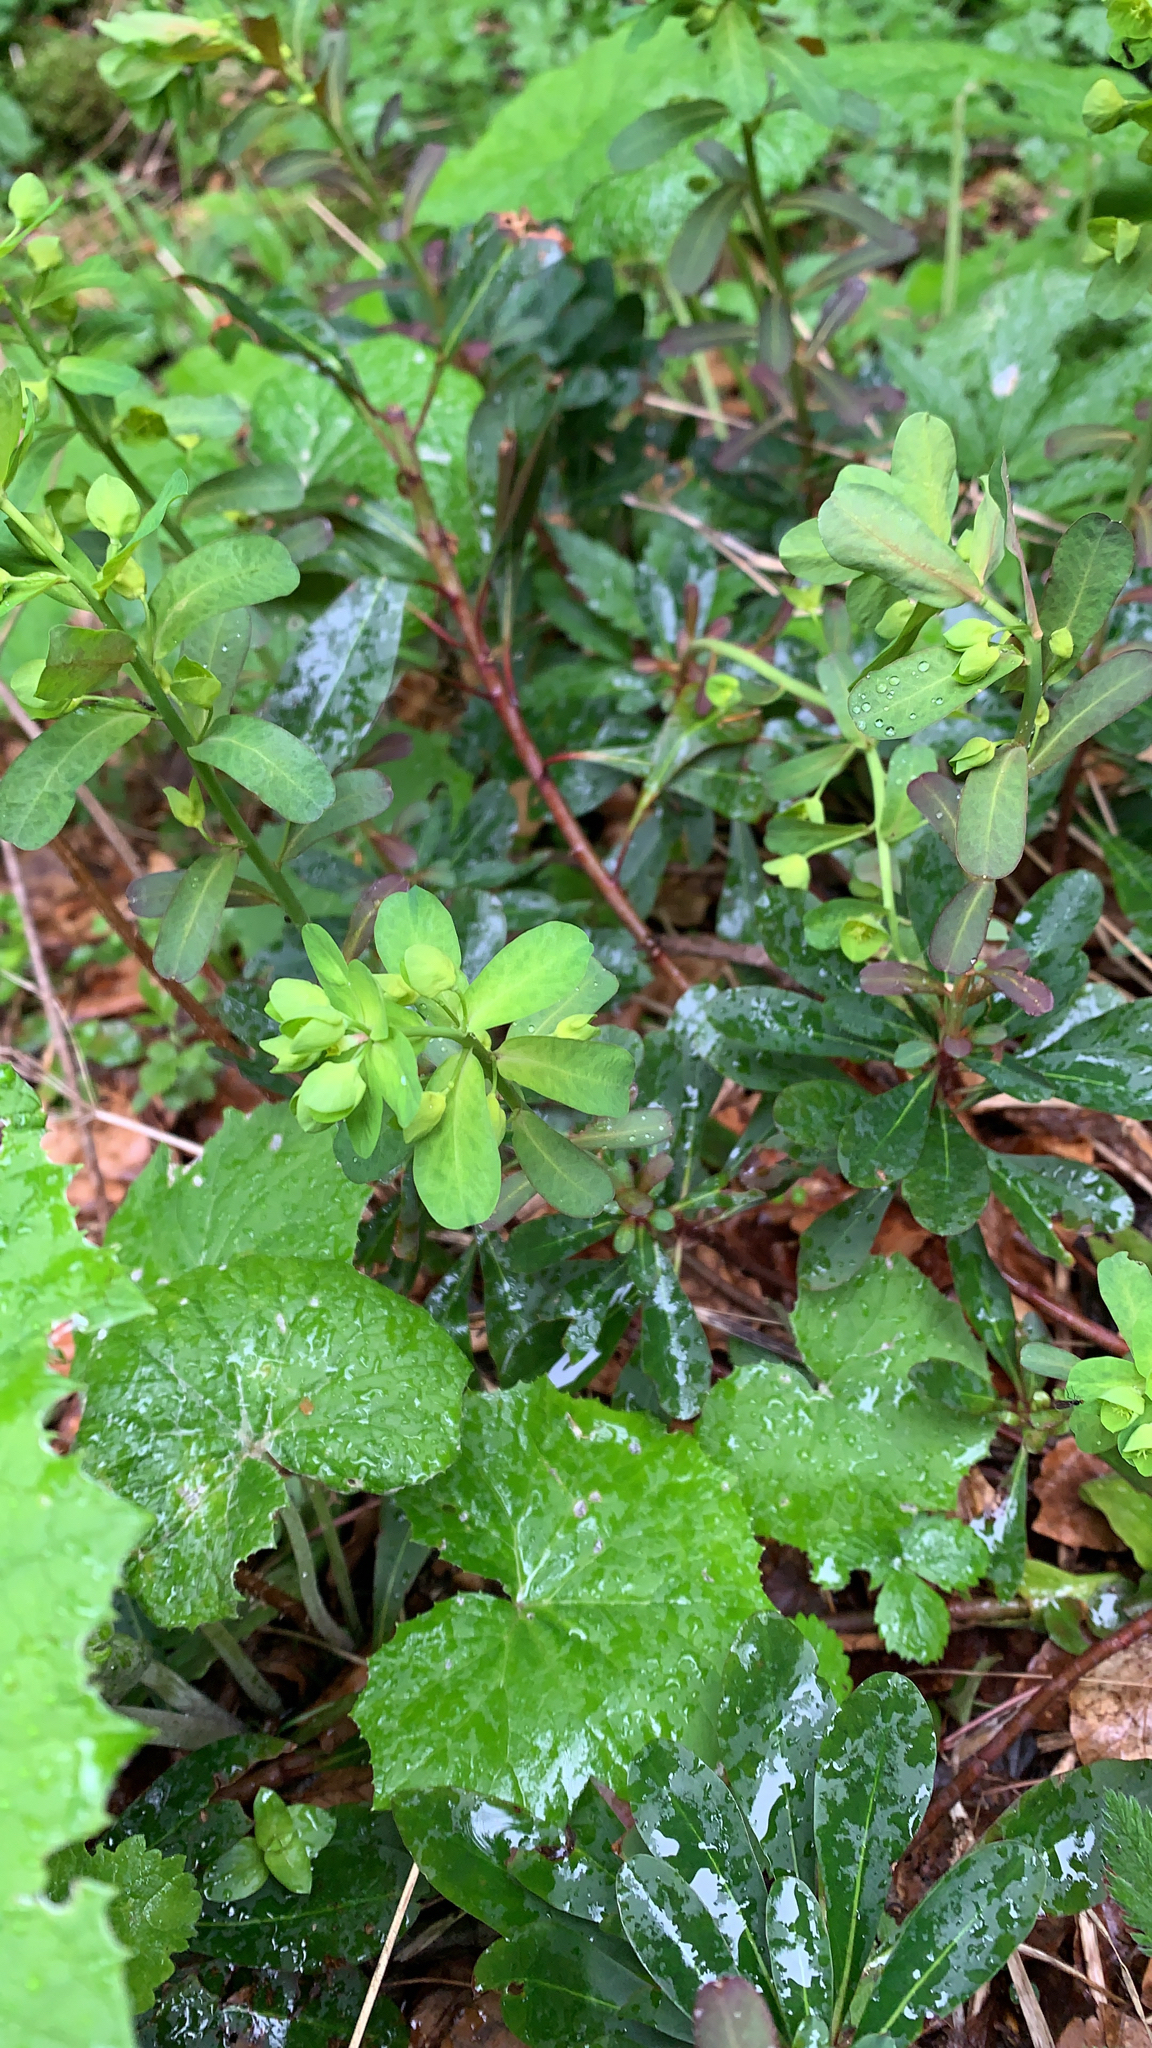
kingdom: Plantae
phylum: Tracheophyta
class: Magnoliopsida
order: Malpighiales
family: Euphorbiaceae
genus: Euphorbia
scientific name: Euphorbia amygdaloides
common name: Wood spurge
